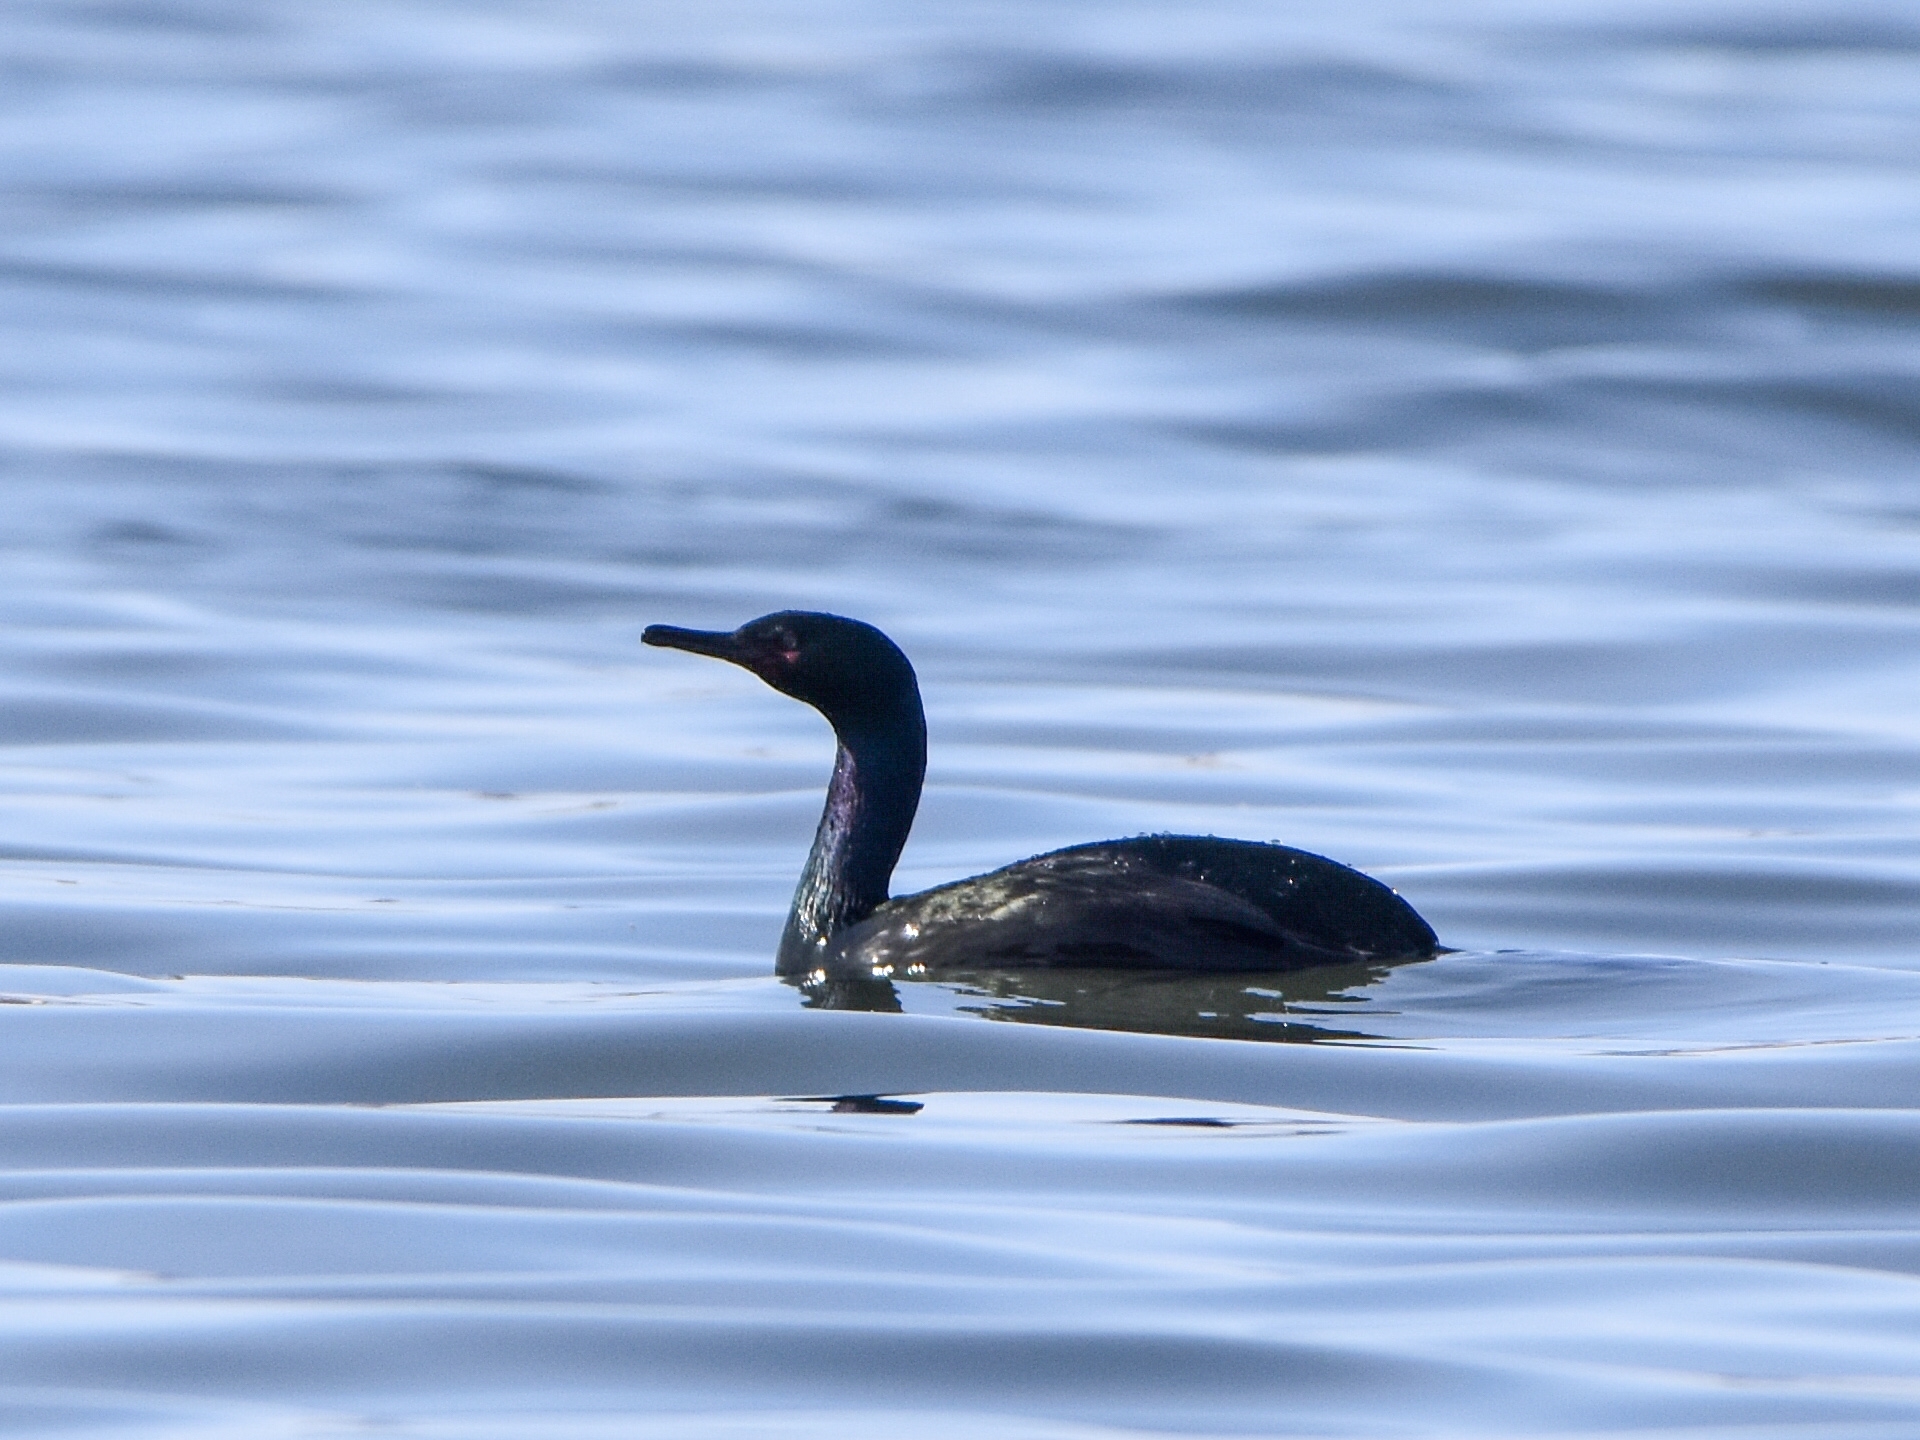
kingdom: Animalia
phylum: Chordata
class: Aves
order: Suliformes
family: Phalacrocoracidae
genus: Phalacrocorax
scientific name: Phalacrocorax pelagicus
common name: Pelagic cormorant
